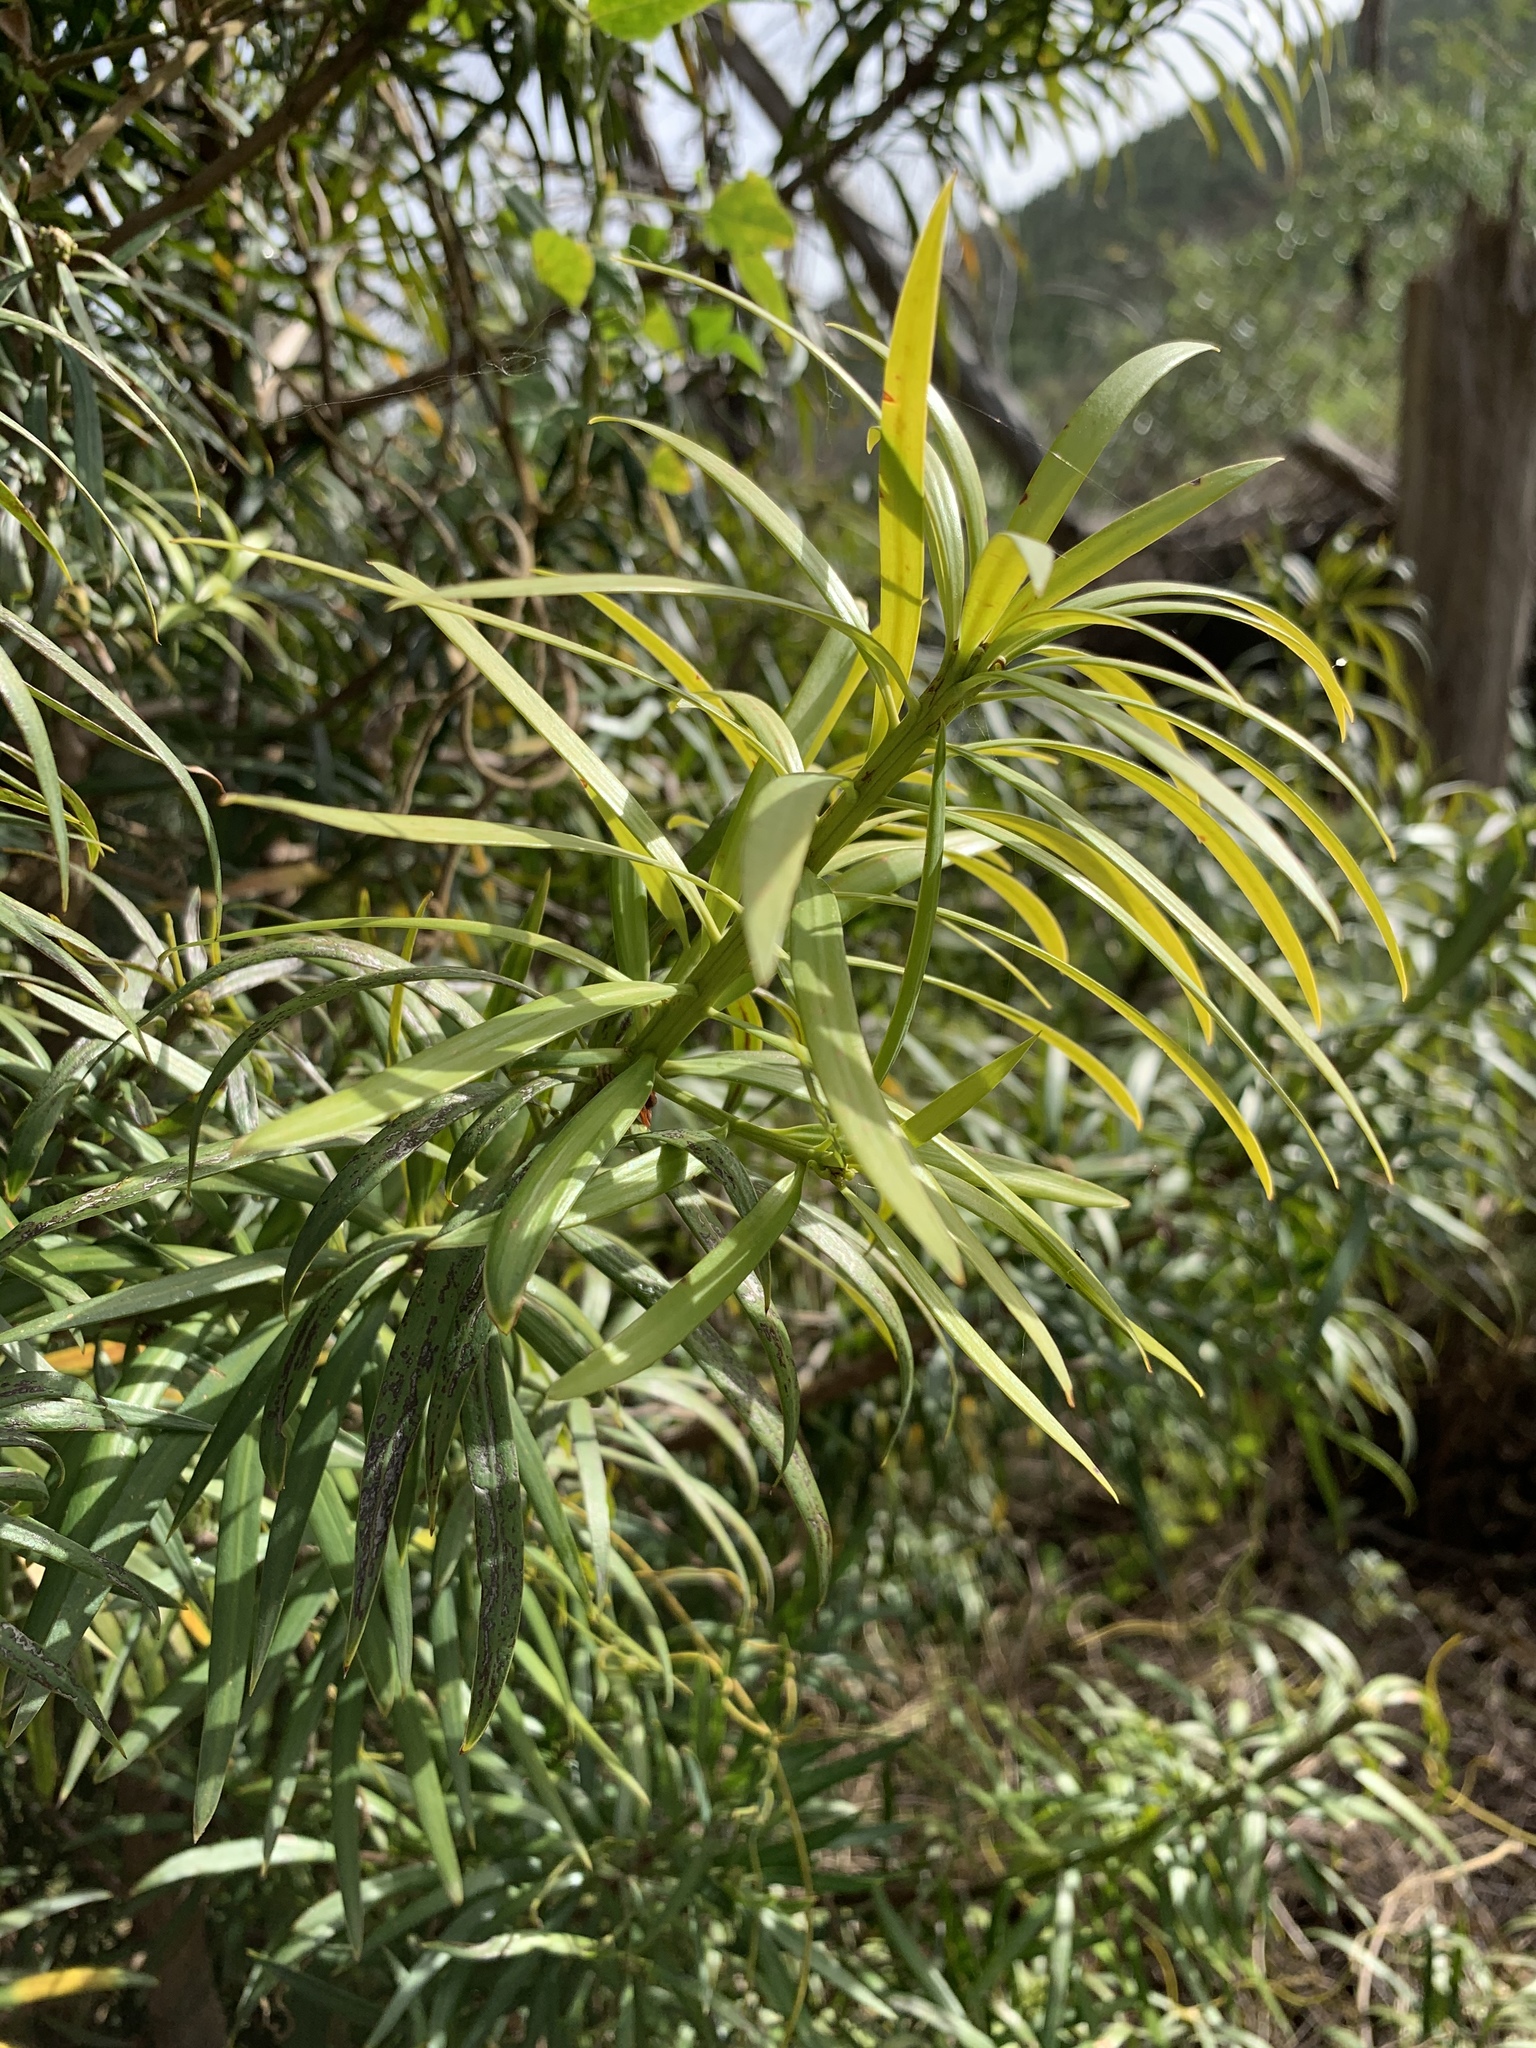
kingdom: Plantae
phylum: Tracheophyta
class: Pinopsida
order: Pinales
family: Podocarpaceae
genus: Podocarpus
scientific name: Podocarpus henkelii
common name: Henkel's yellowwood
